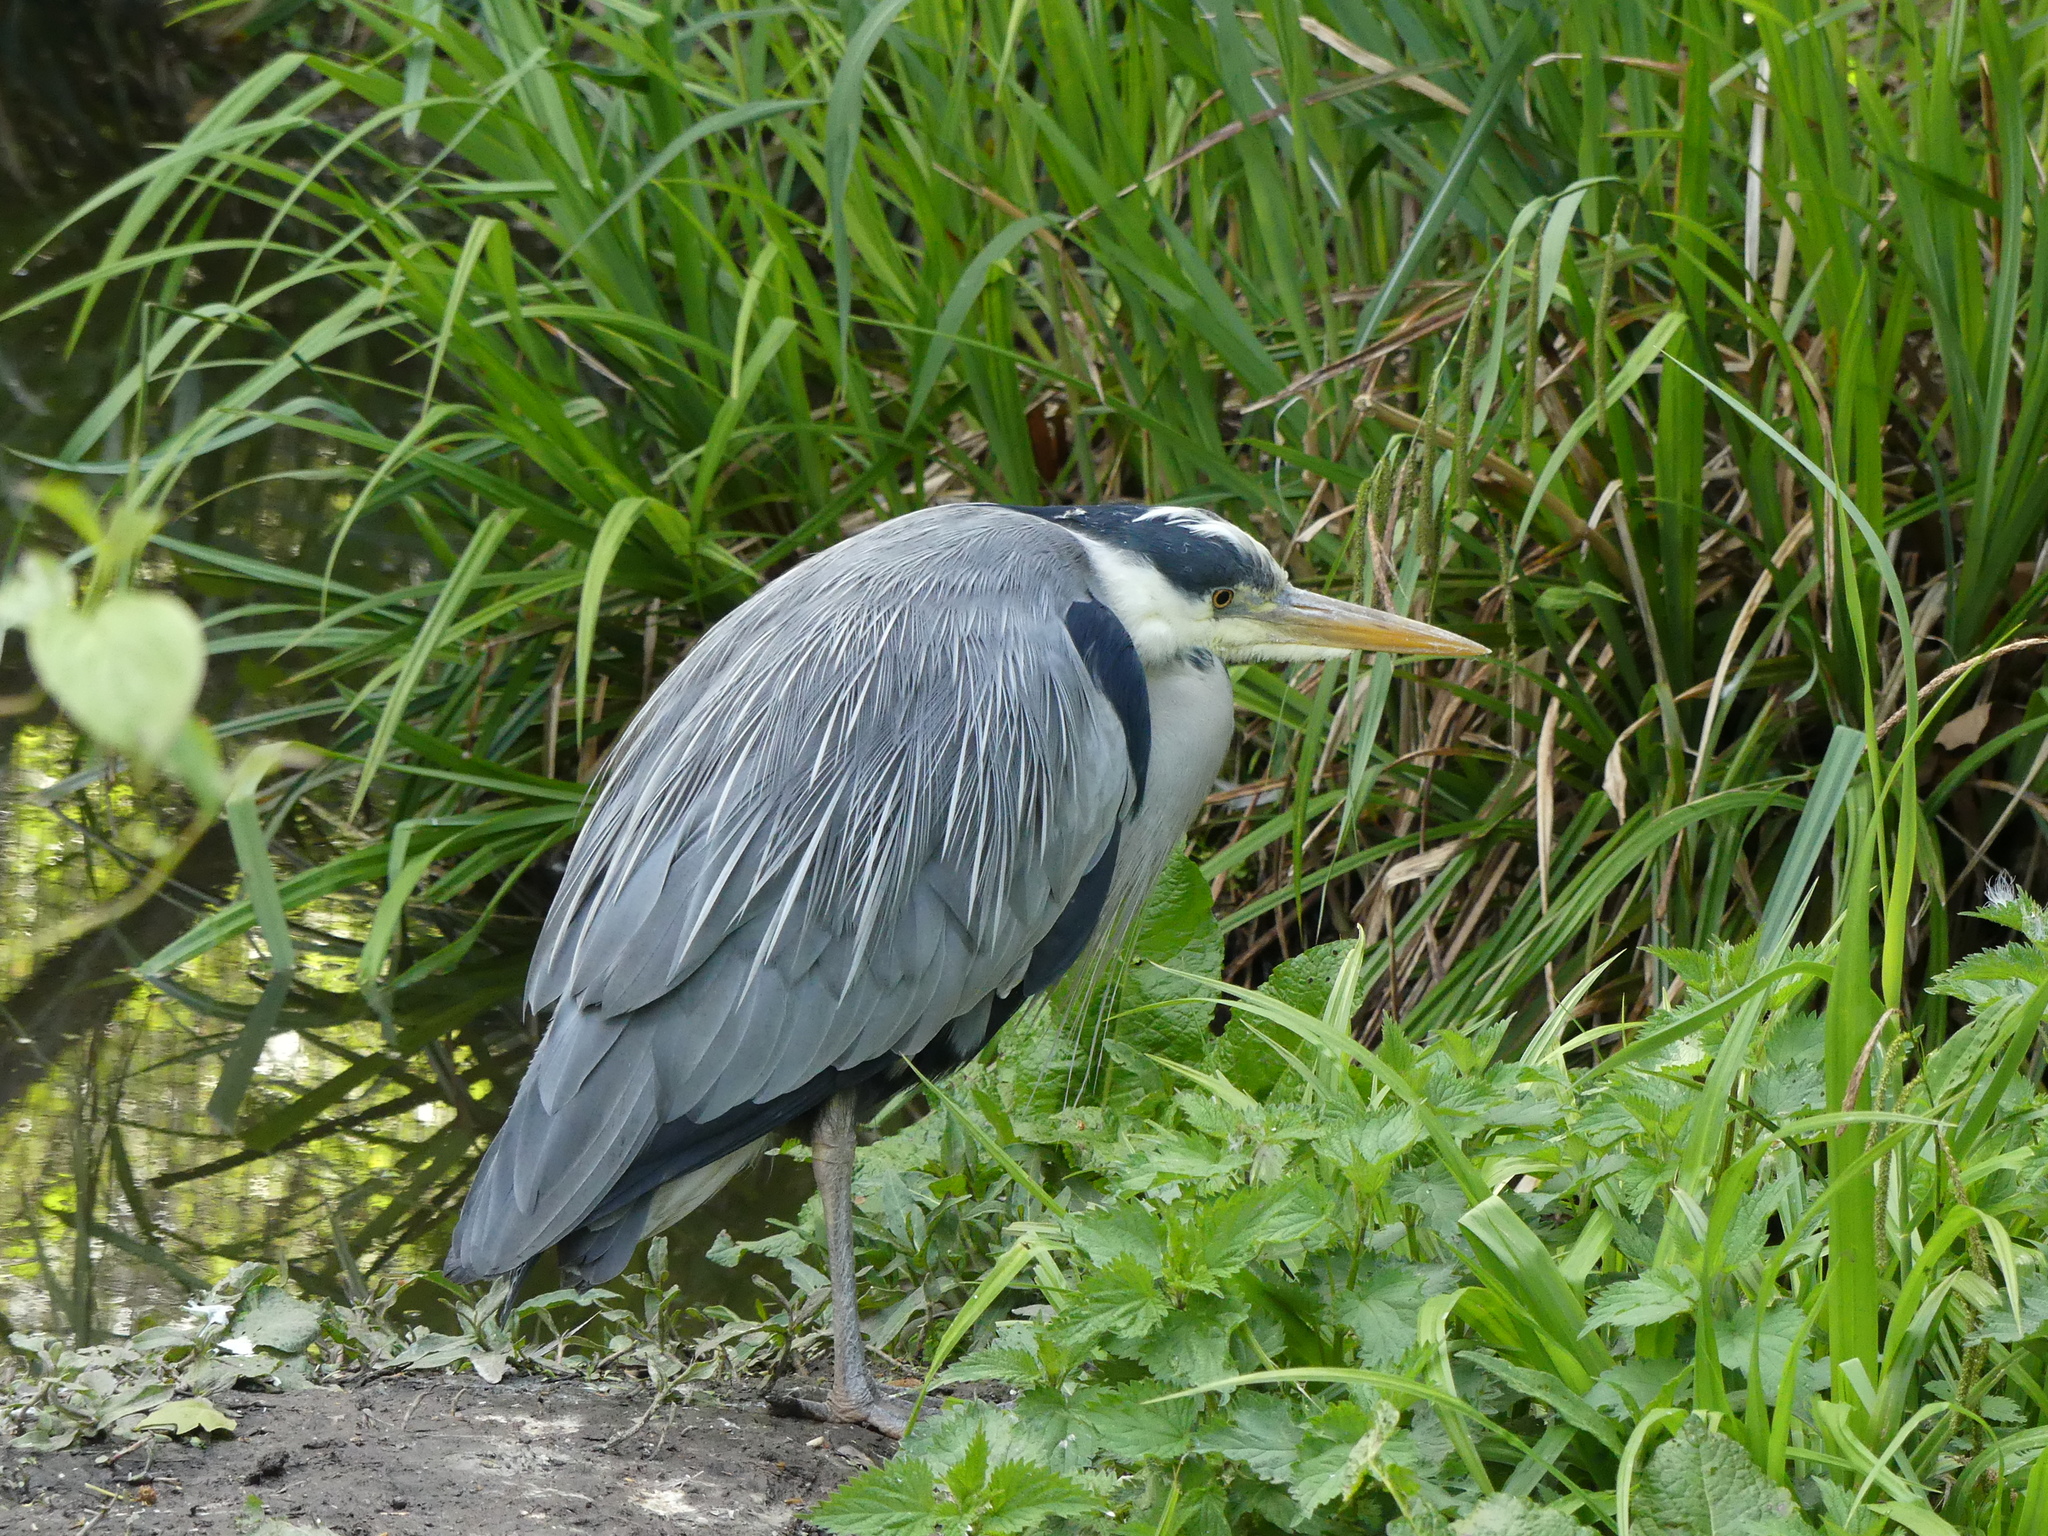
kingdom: Animalia
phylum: Chordata
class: Aves
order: Pelecaniformes
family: Ardeidae
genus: Ardea
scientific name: Ardea cinerea
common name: Grey heron
